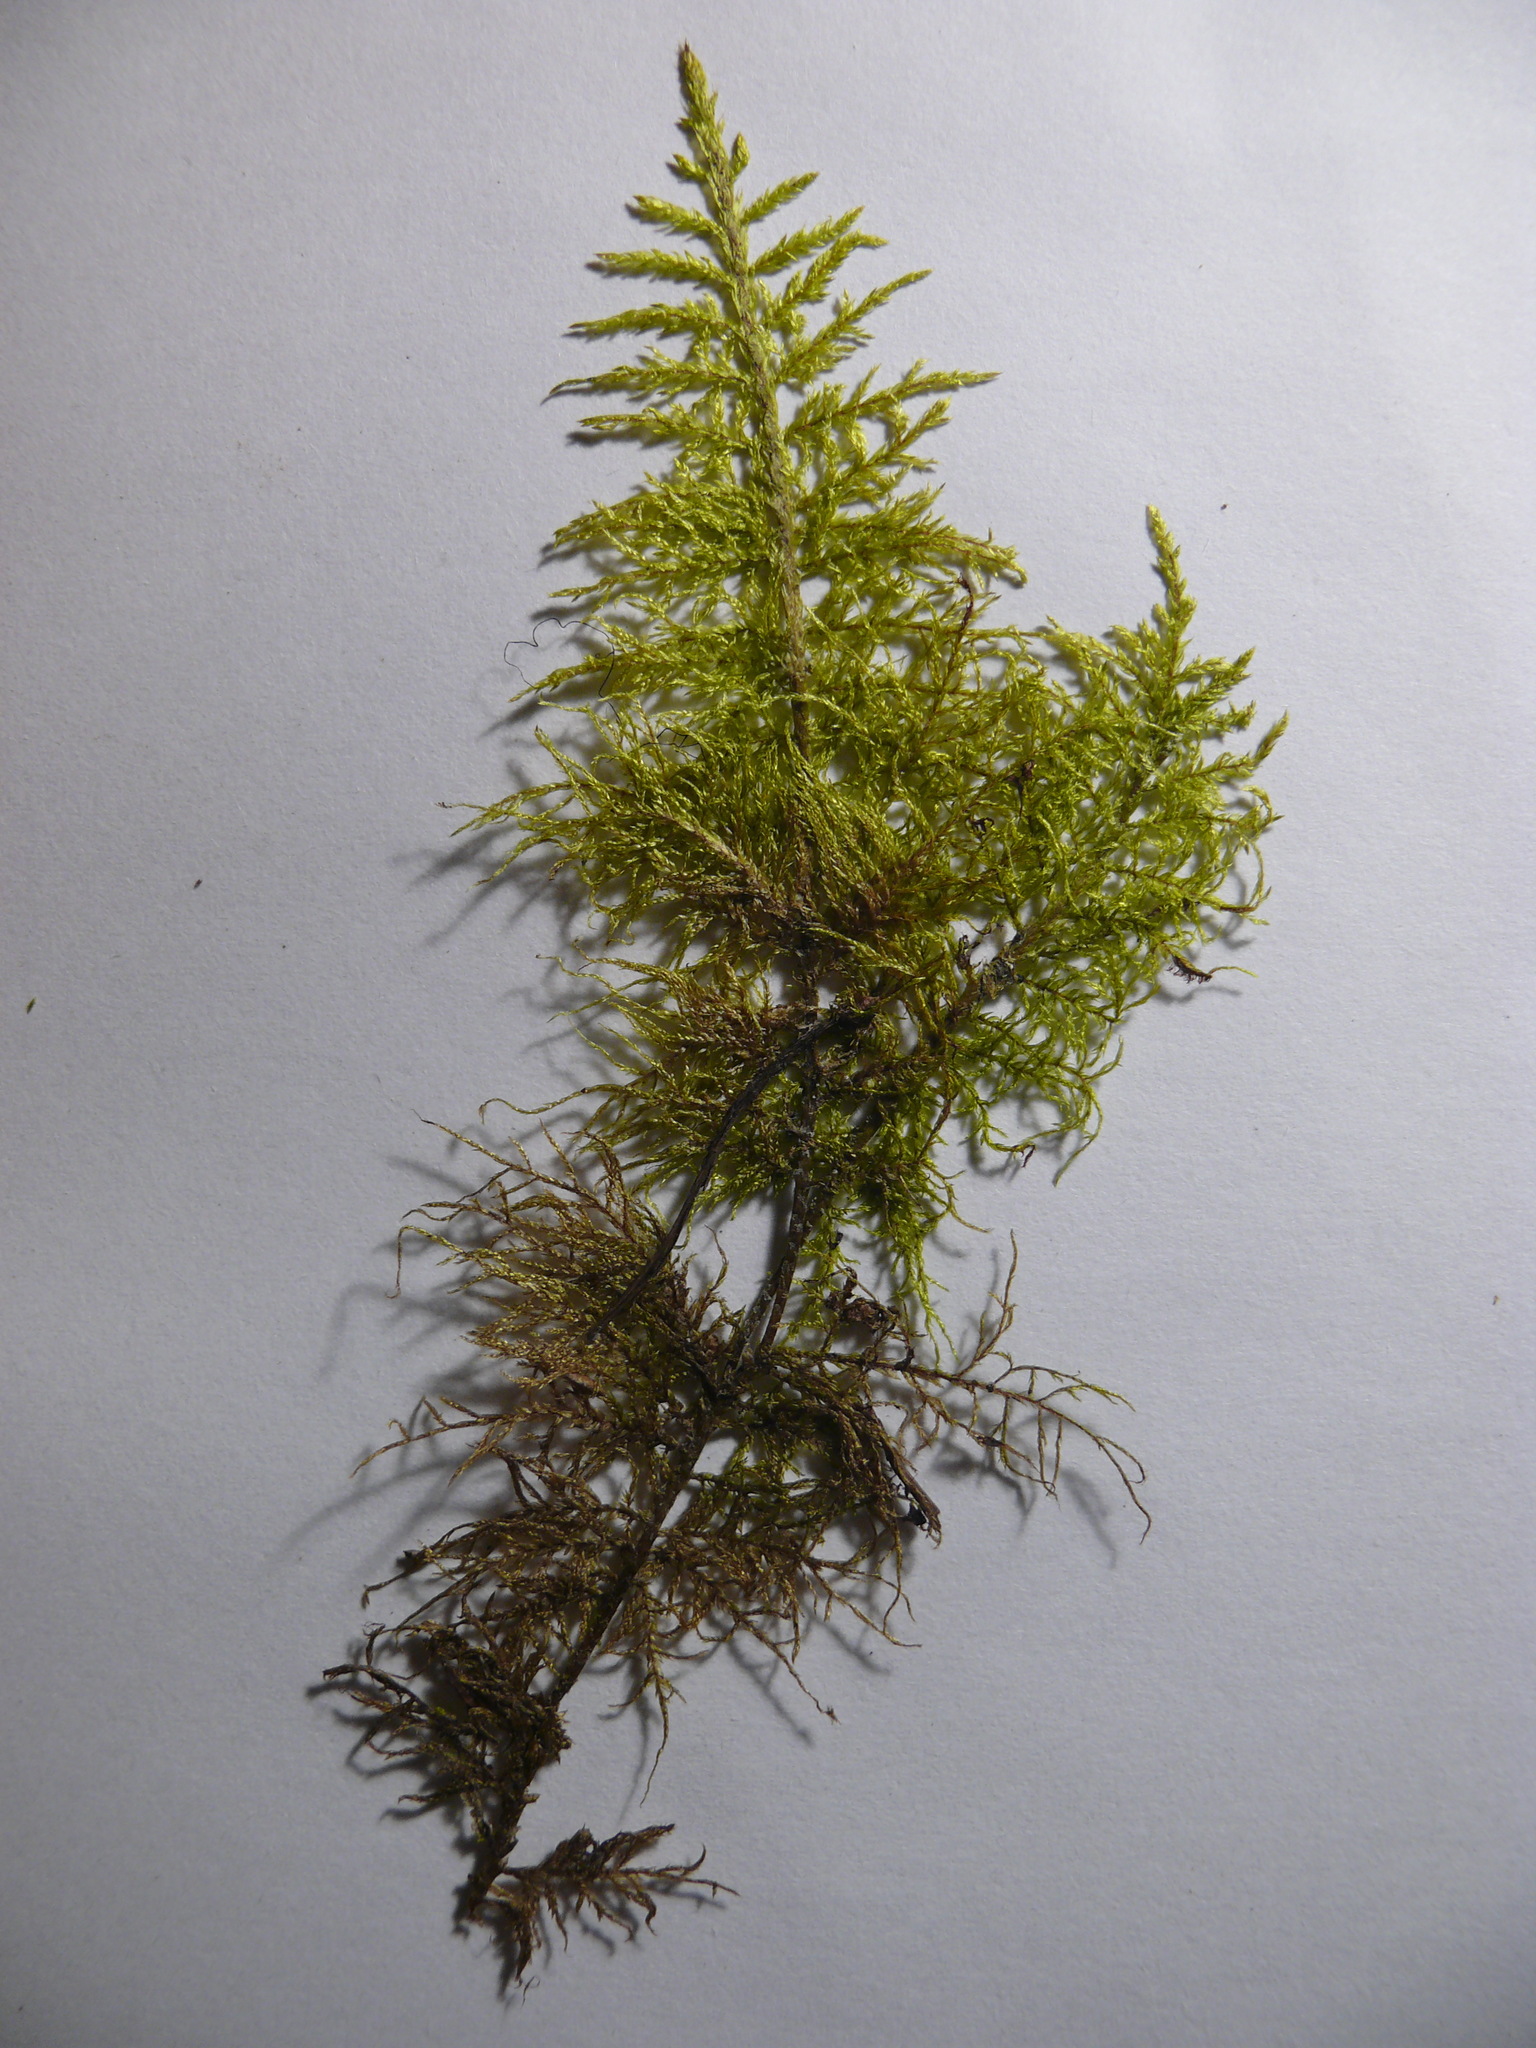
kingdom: Plantae
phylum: Bryophyta
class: Bryopsida
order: Hypnales
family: Hylocomiaceae
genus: Hylocomium
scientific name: Hylocomium splendens
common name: Stairstep moss
